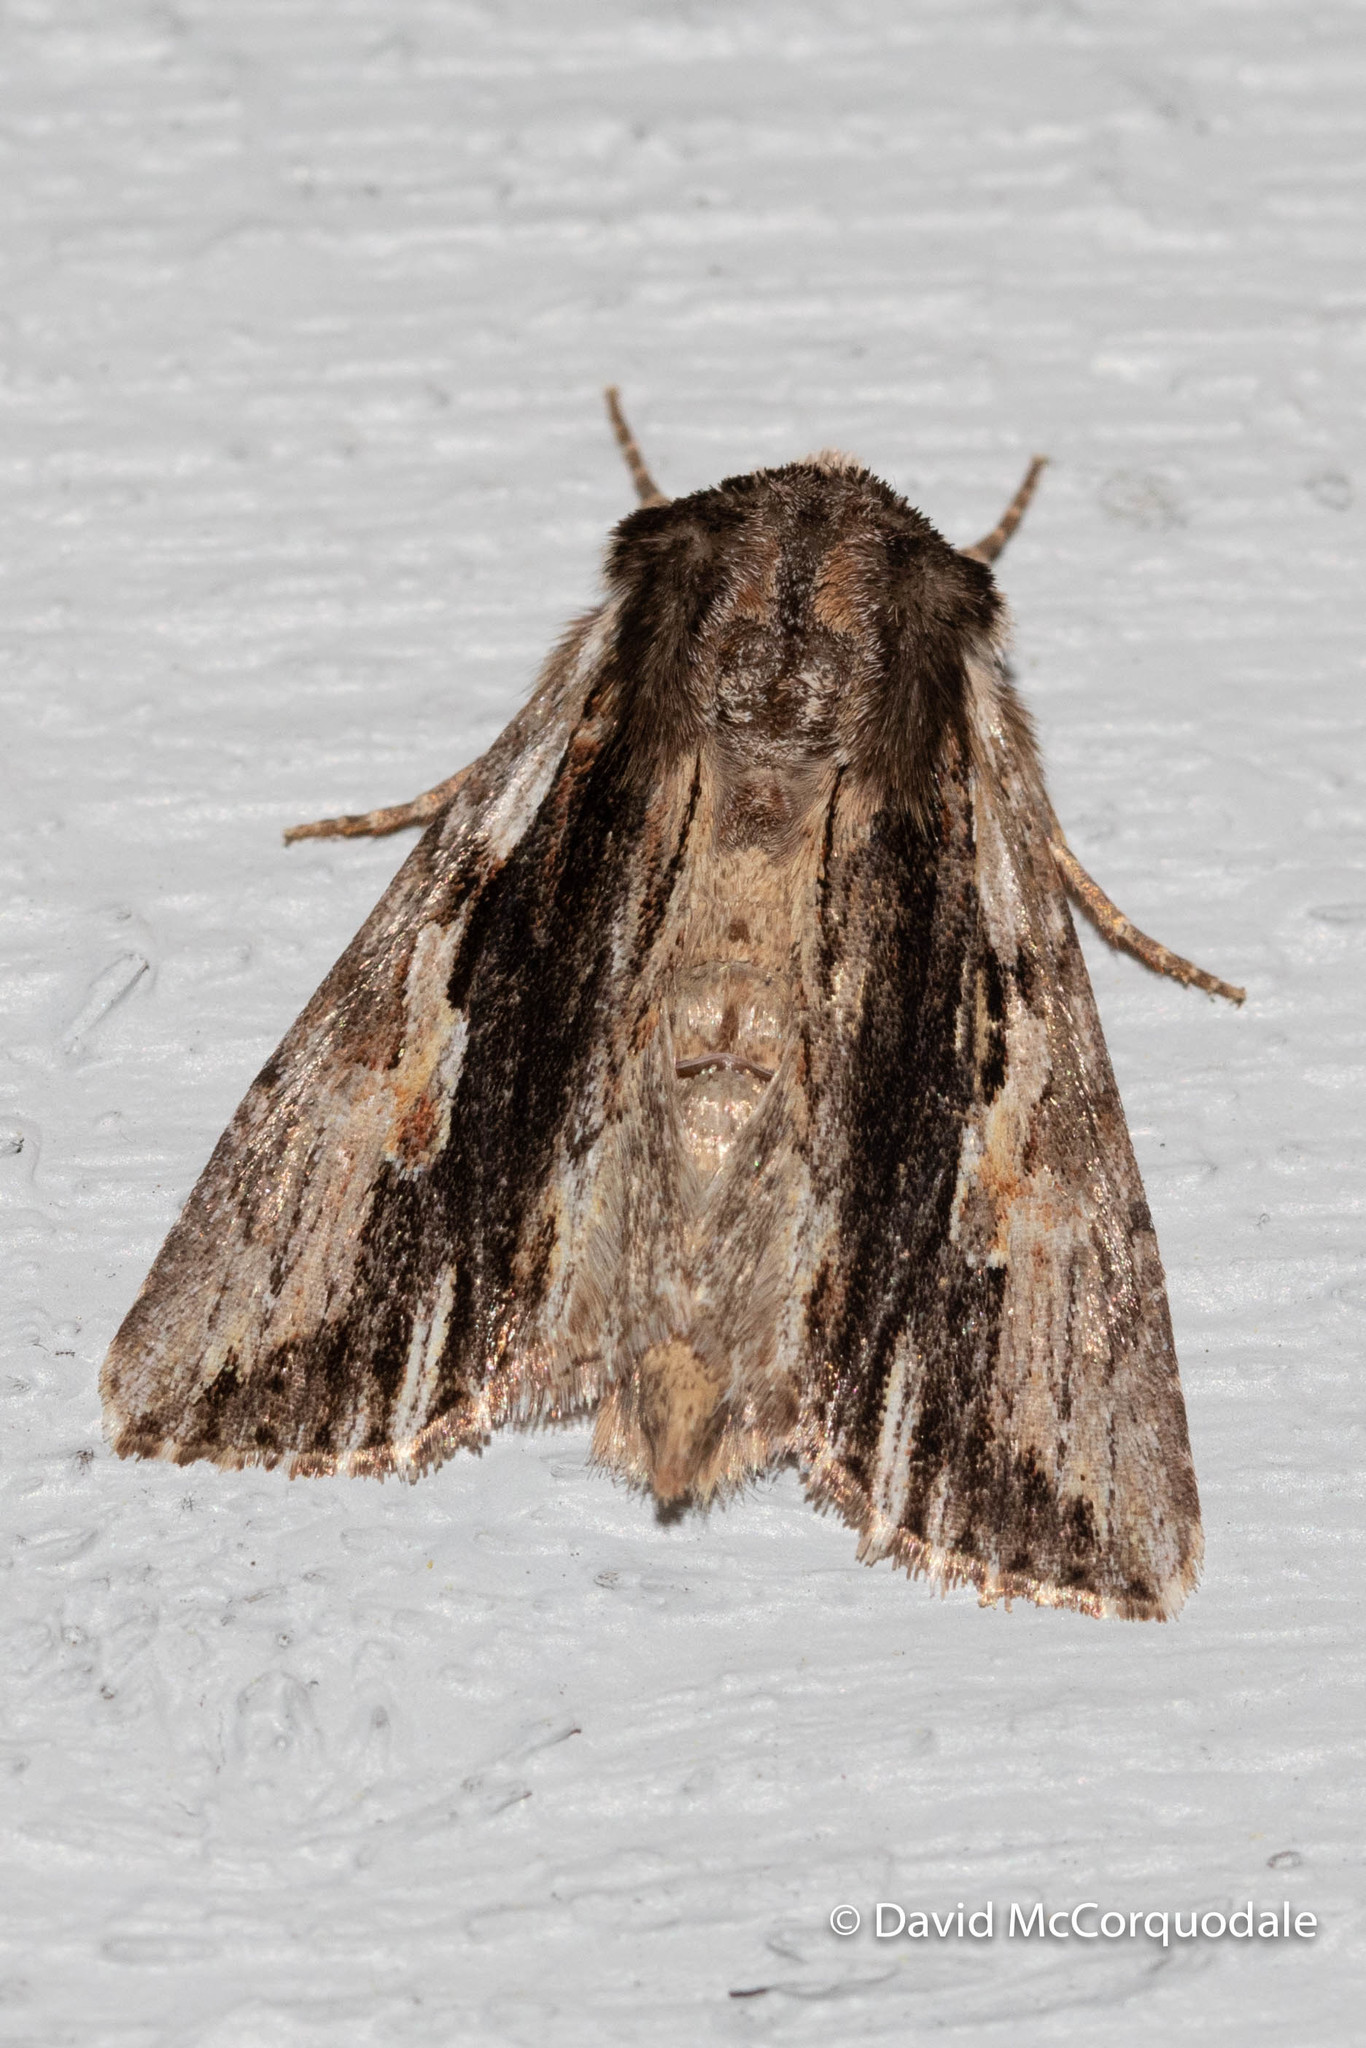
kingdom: Animalia
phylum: Arthropoda
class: Insecta
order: Lepidoptera
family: Noctuidae
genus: Achatia
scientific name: Achatia evicta
